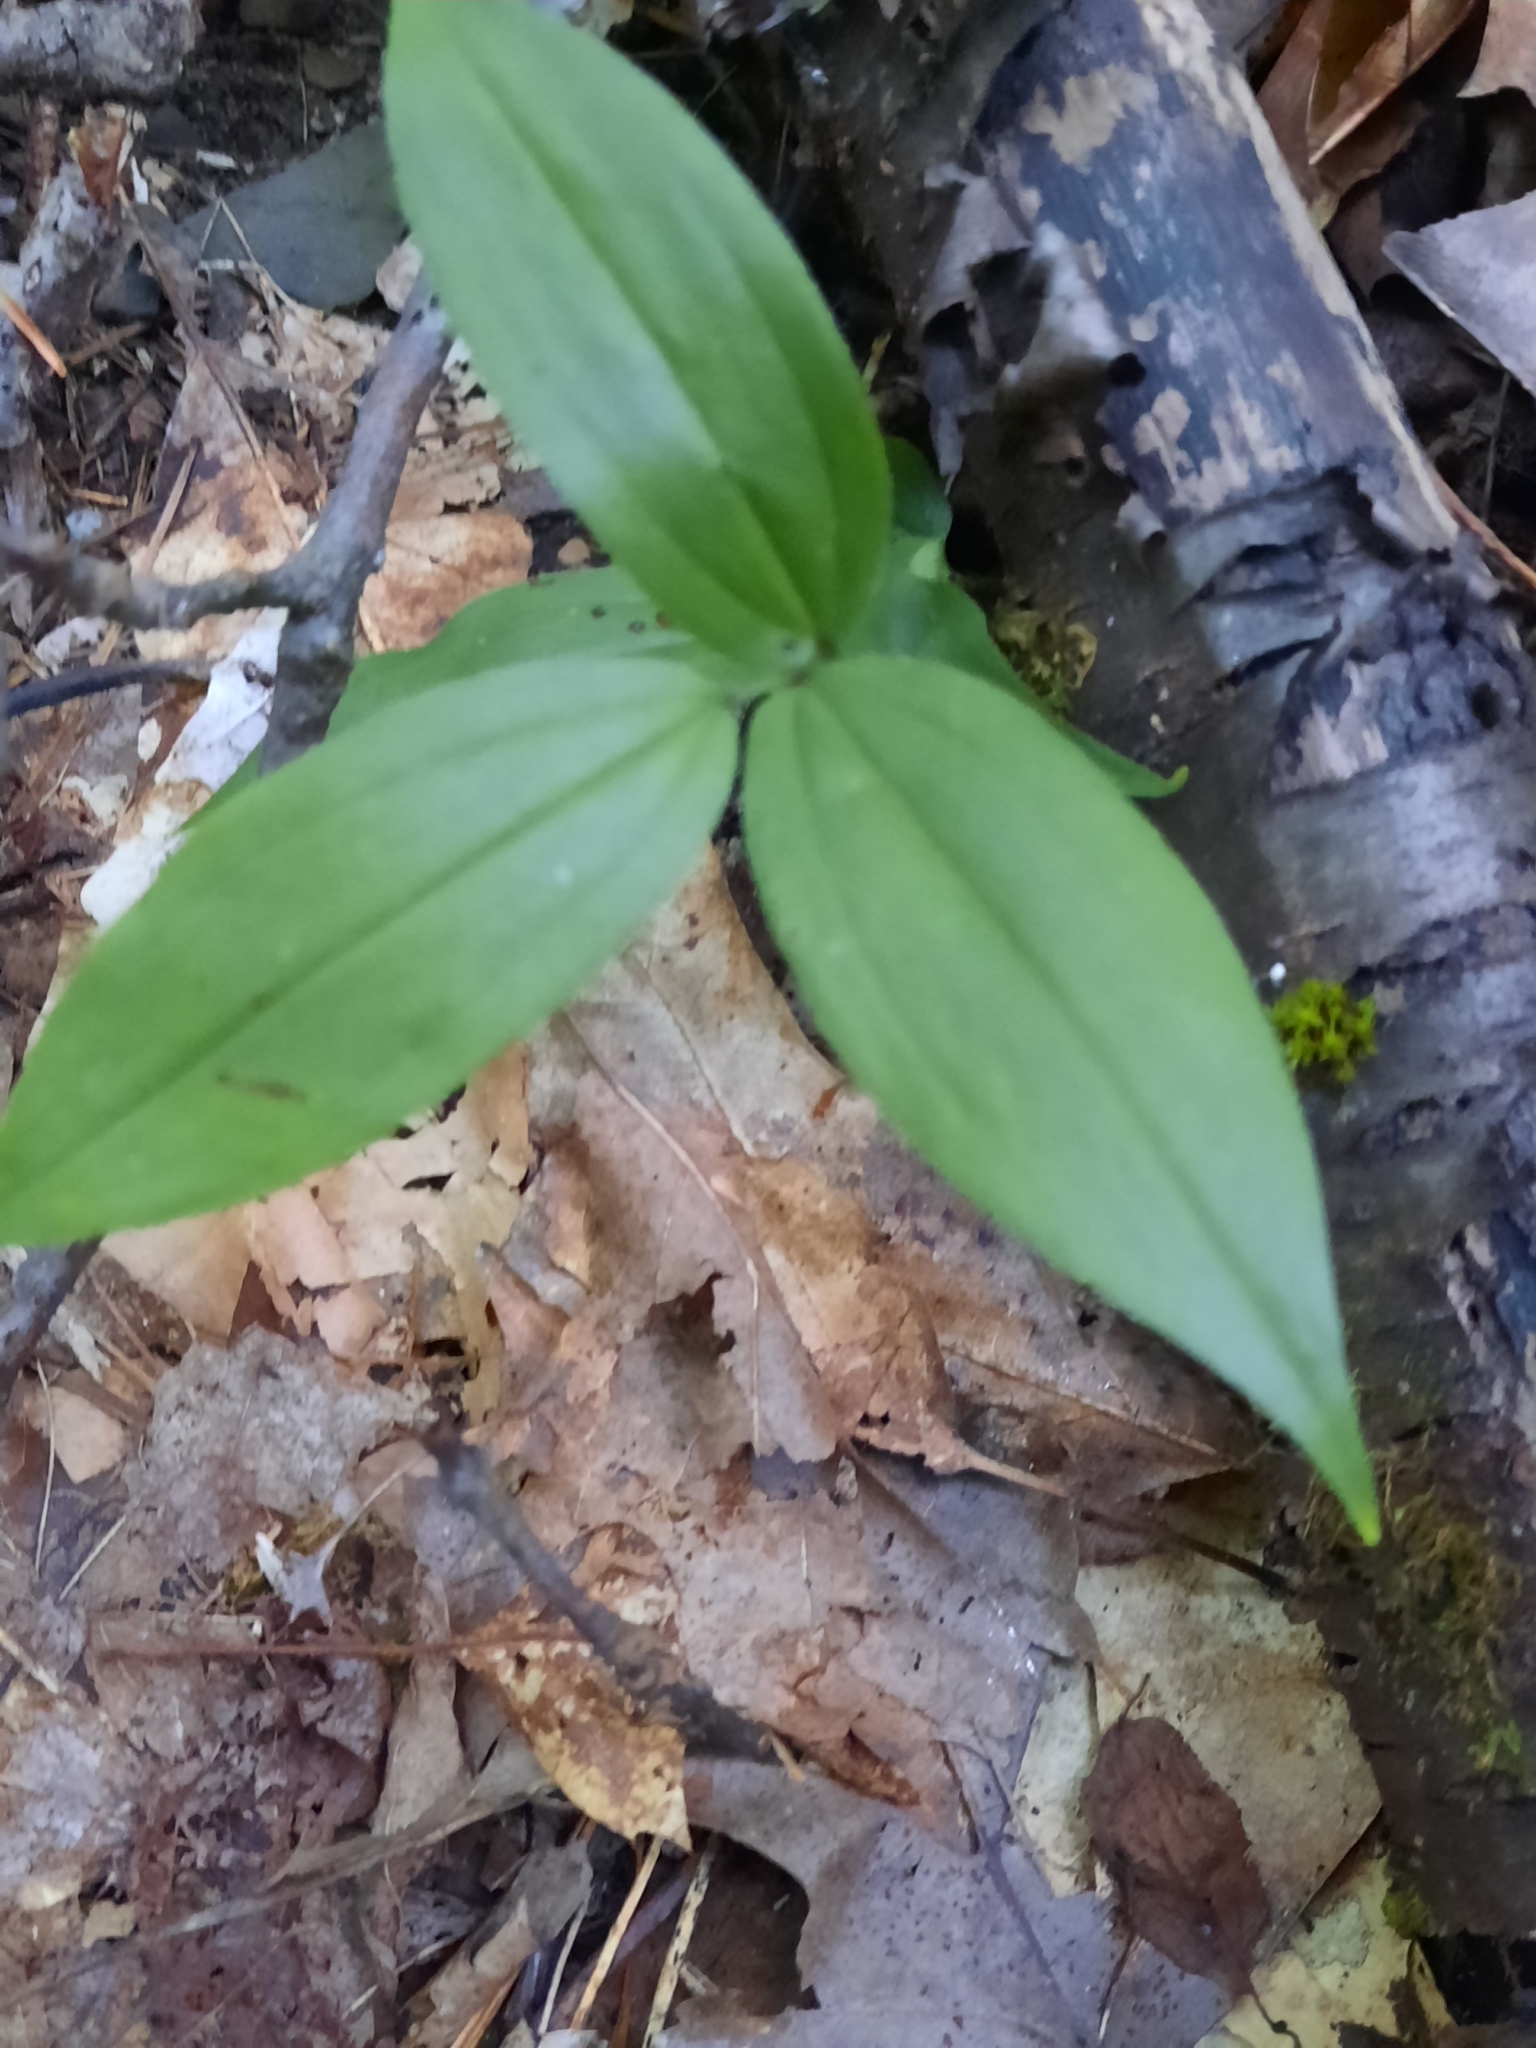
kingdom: Plantae
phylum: Tracheophyta
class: Liliopsida
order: Asparagales
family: Asparagaceae
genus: Maianthemum
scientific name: Maianthemum racemosum
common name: False spikenard
